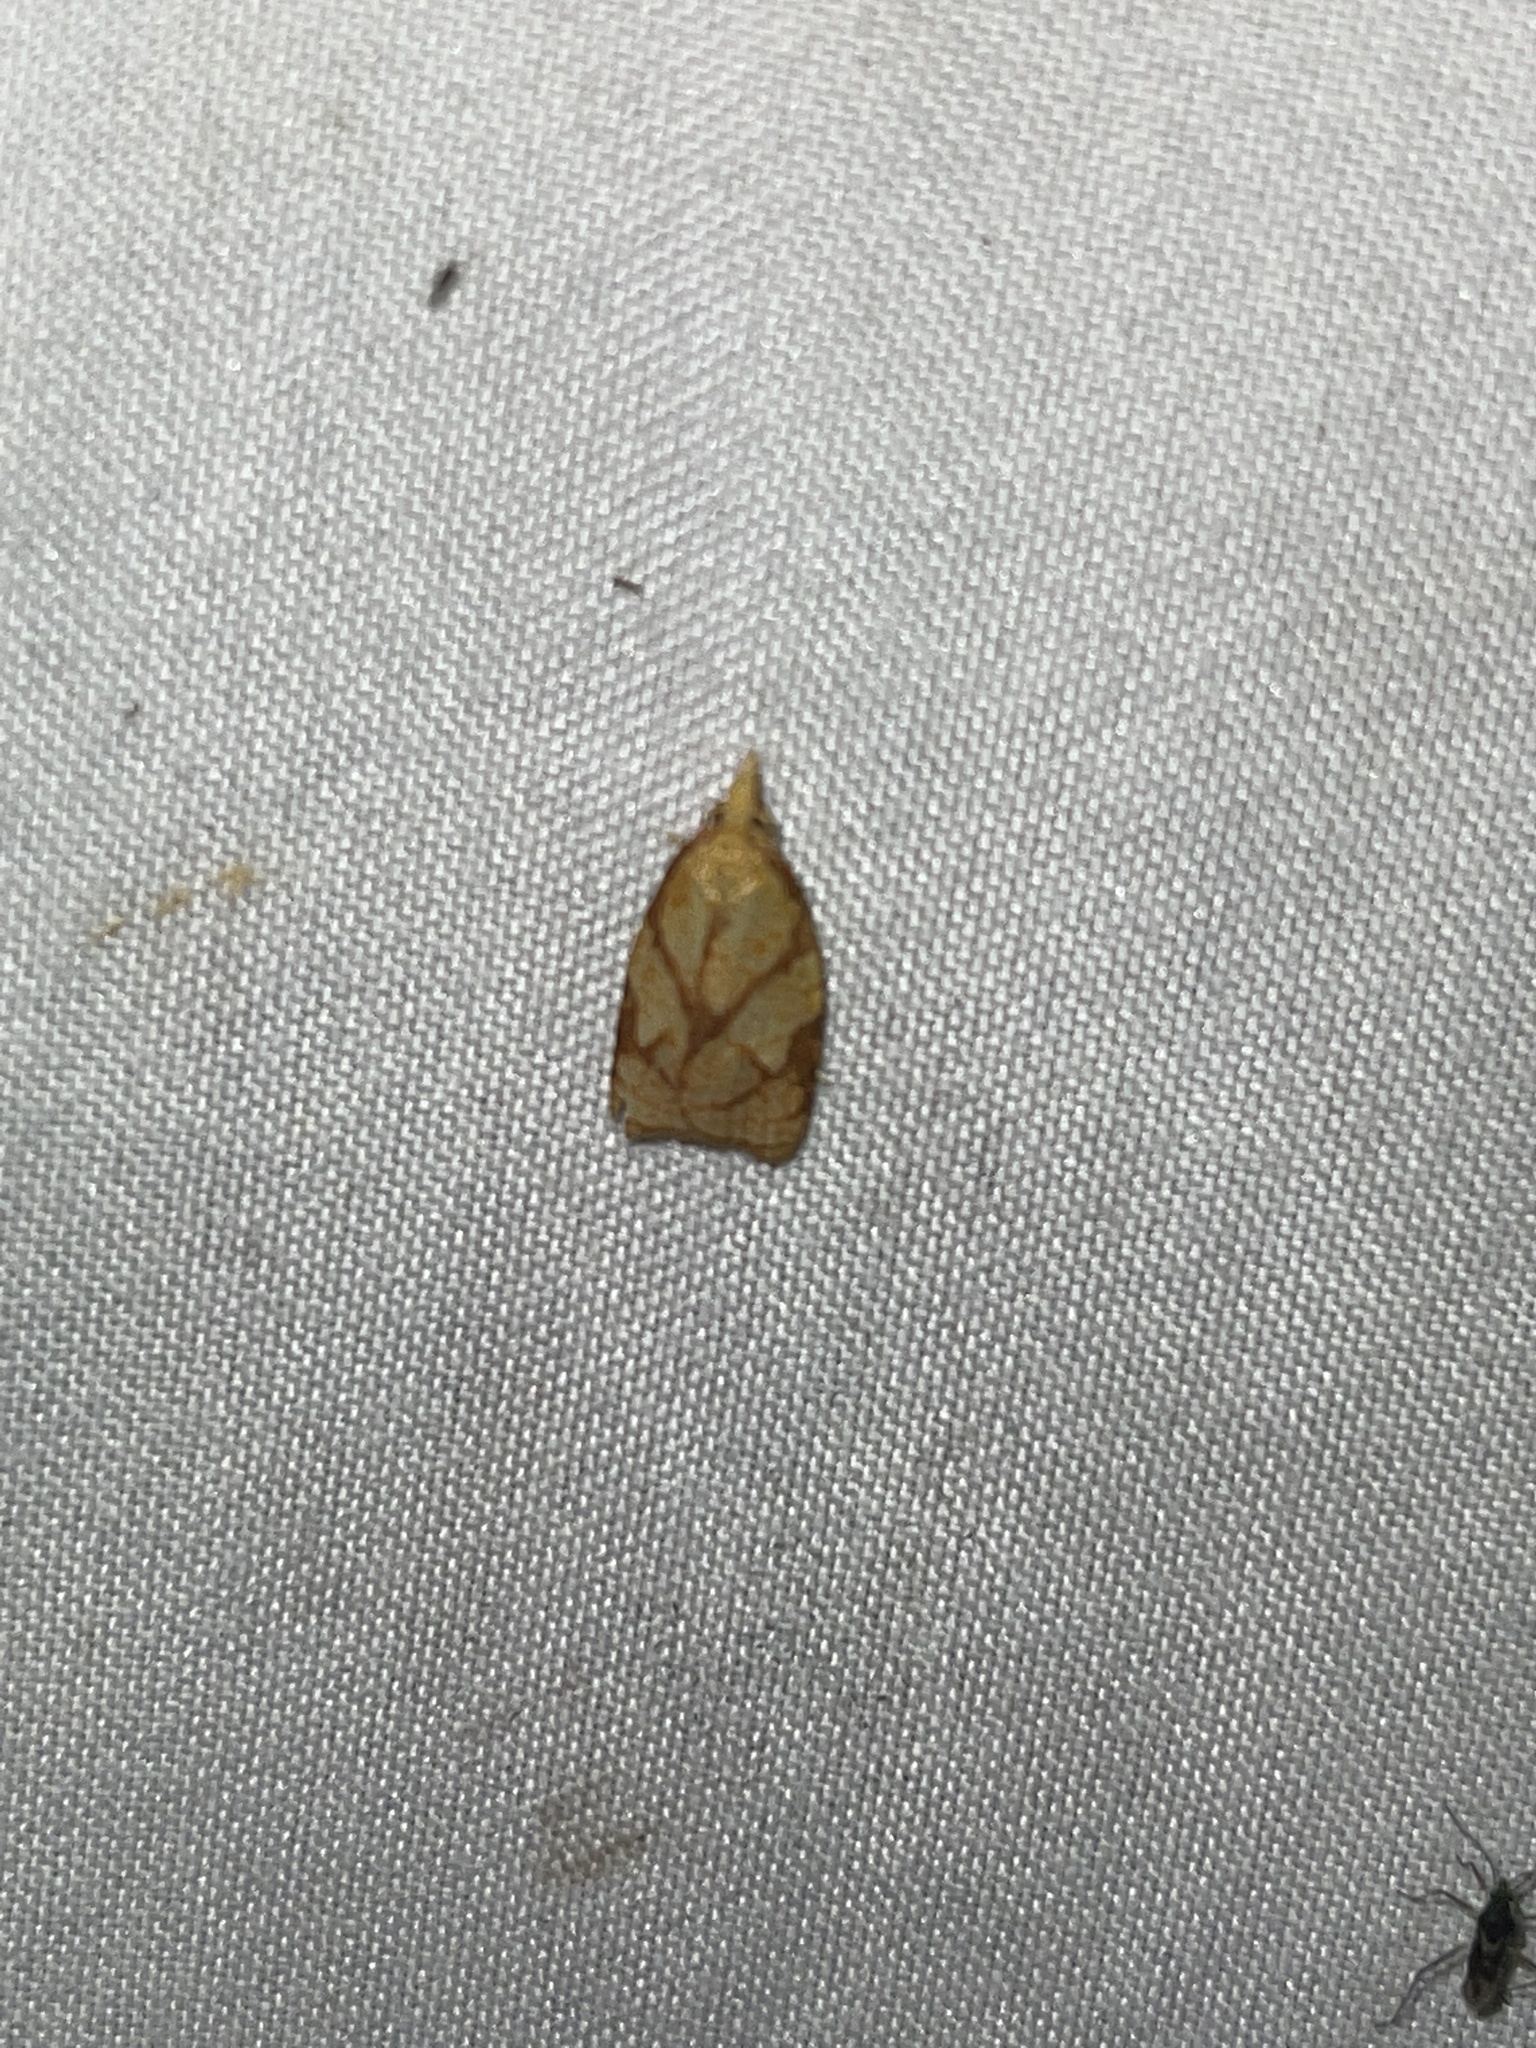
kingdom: Animalia
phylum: Arthropoda
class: Insecta
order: Lepidoptera
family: Tortricidae
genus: Cenopis
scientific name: Cenopis reticulatana
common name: Reticulated fruitworm moth
